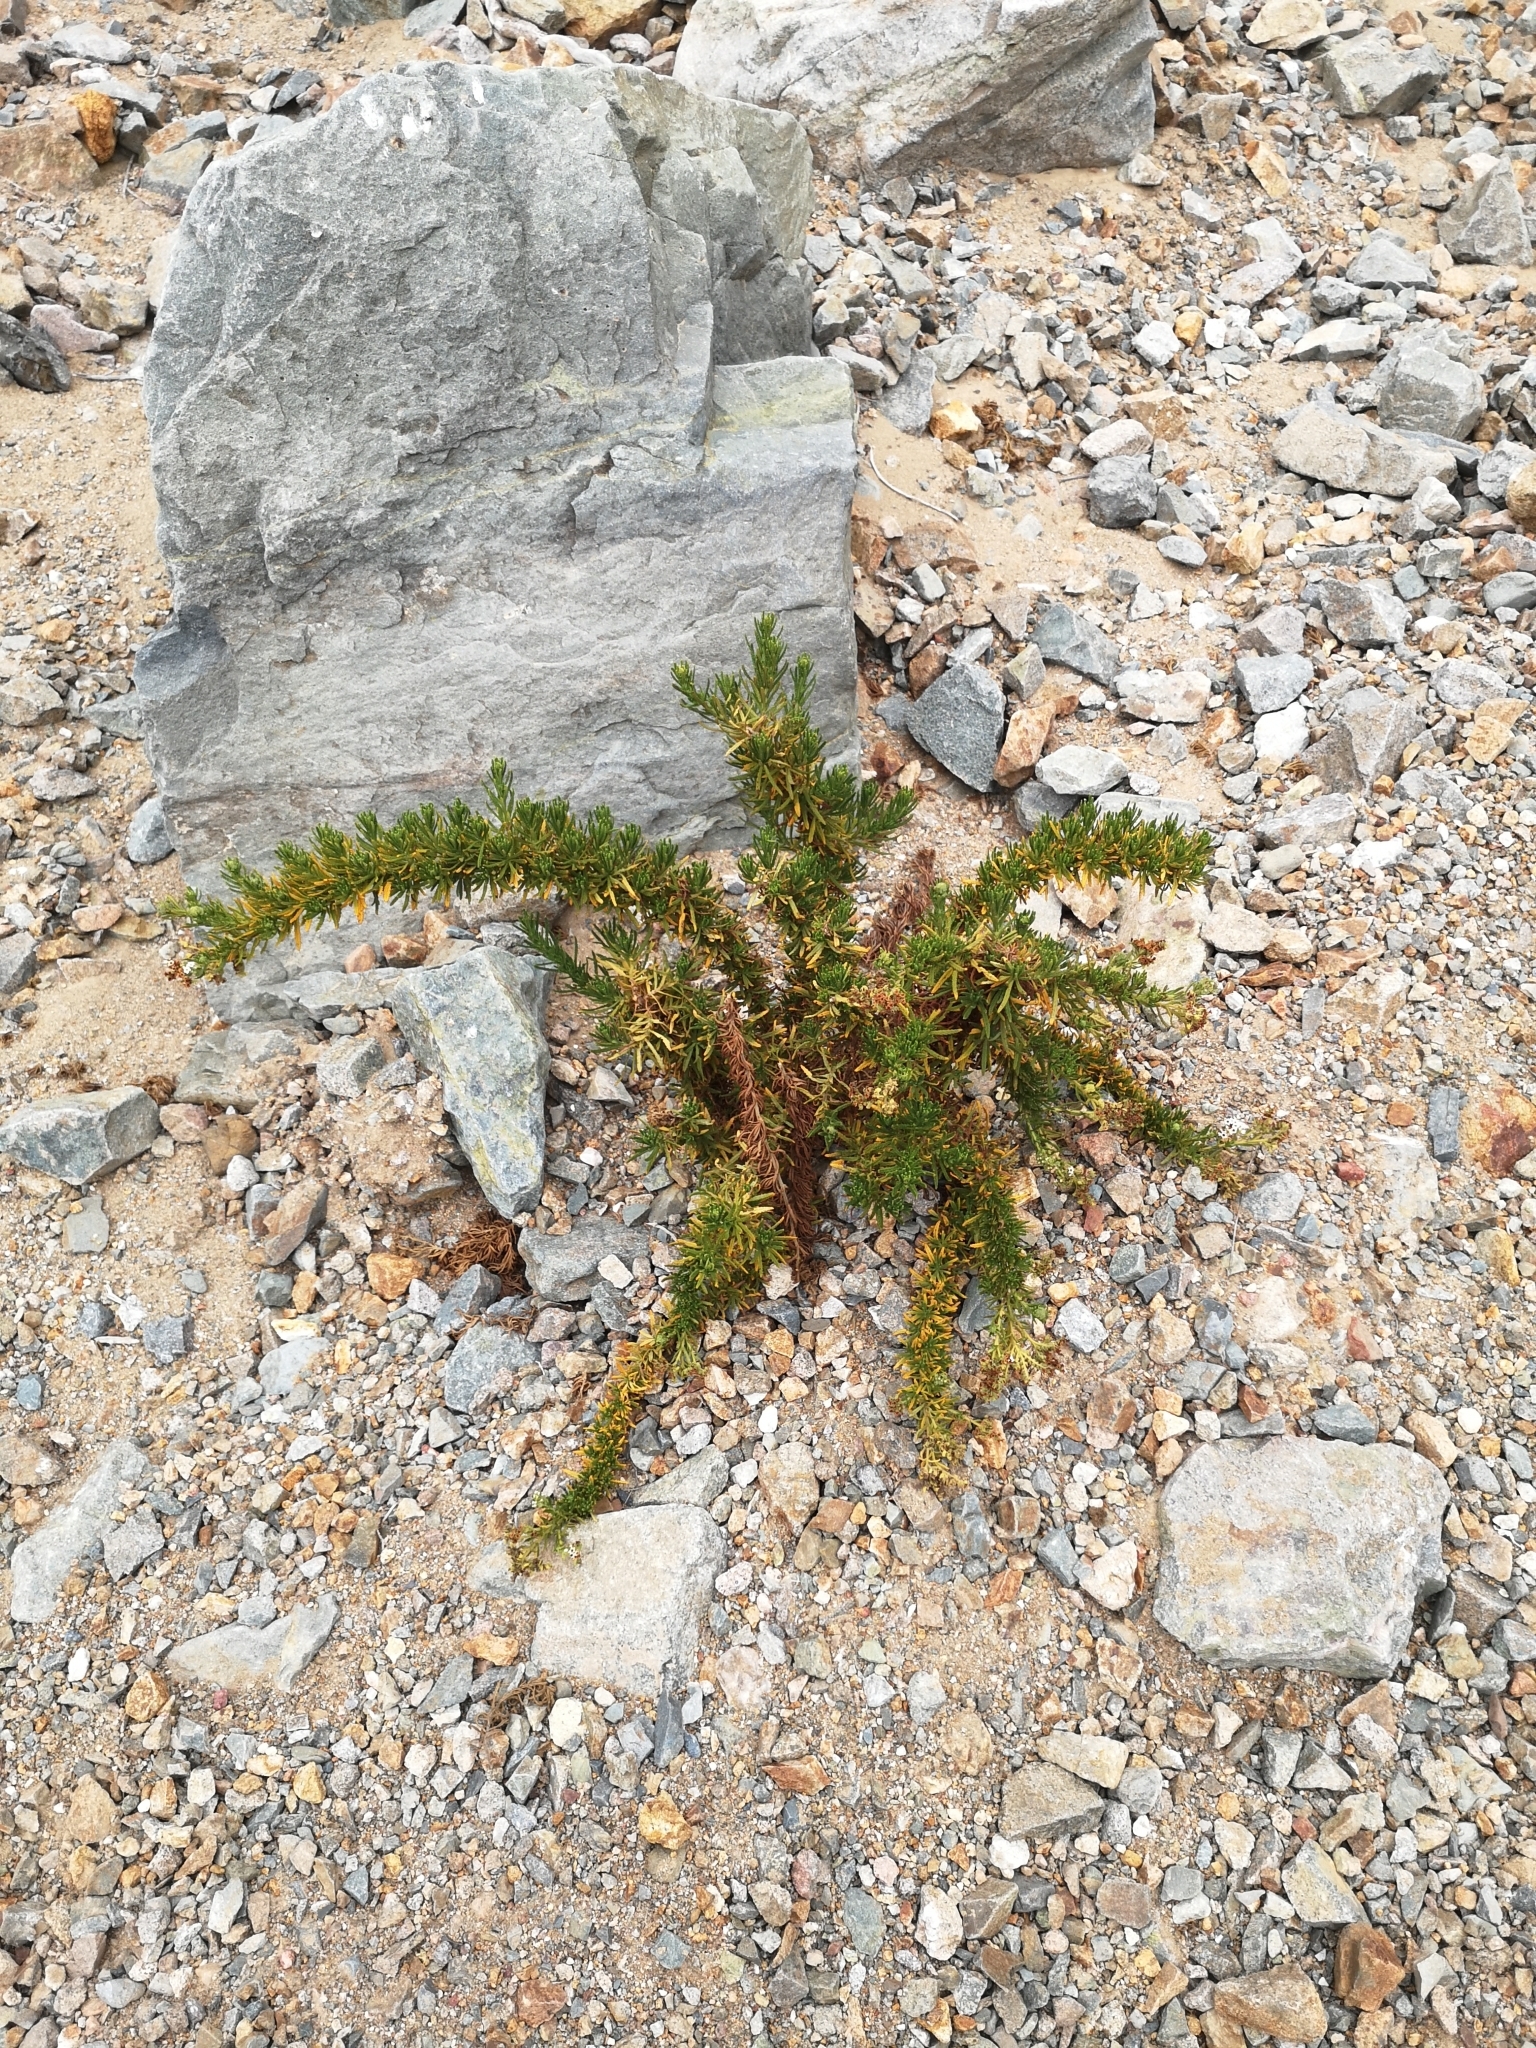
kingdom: Plantae
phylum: Tracheophyta
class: Magnoliopsida
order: Boraginales
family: Heliotropiaceae
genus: Heliotropium
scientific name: Heliotropium taltalense
